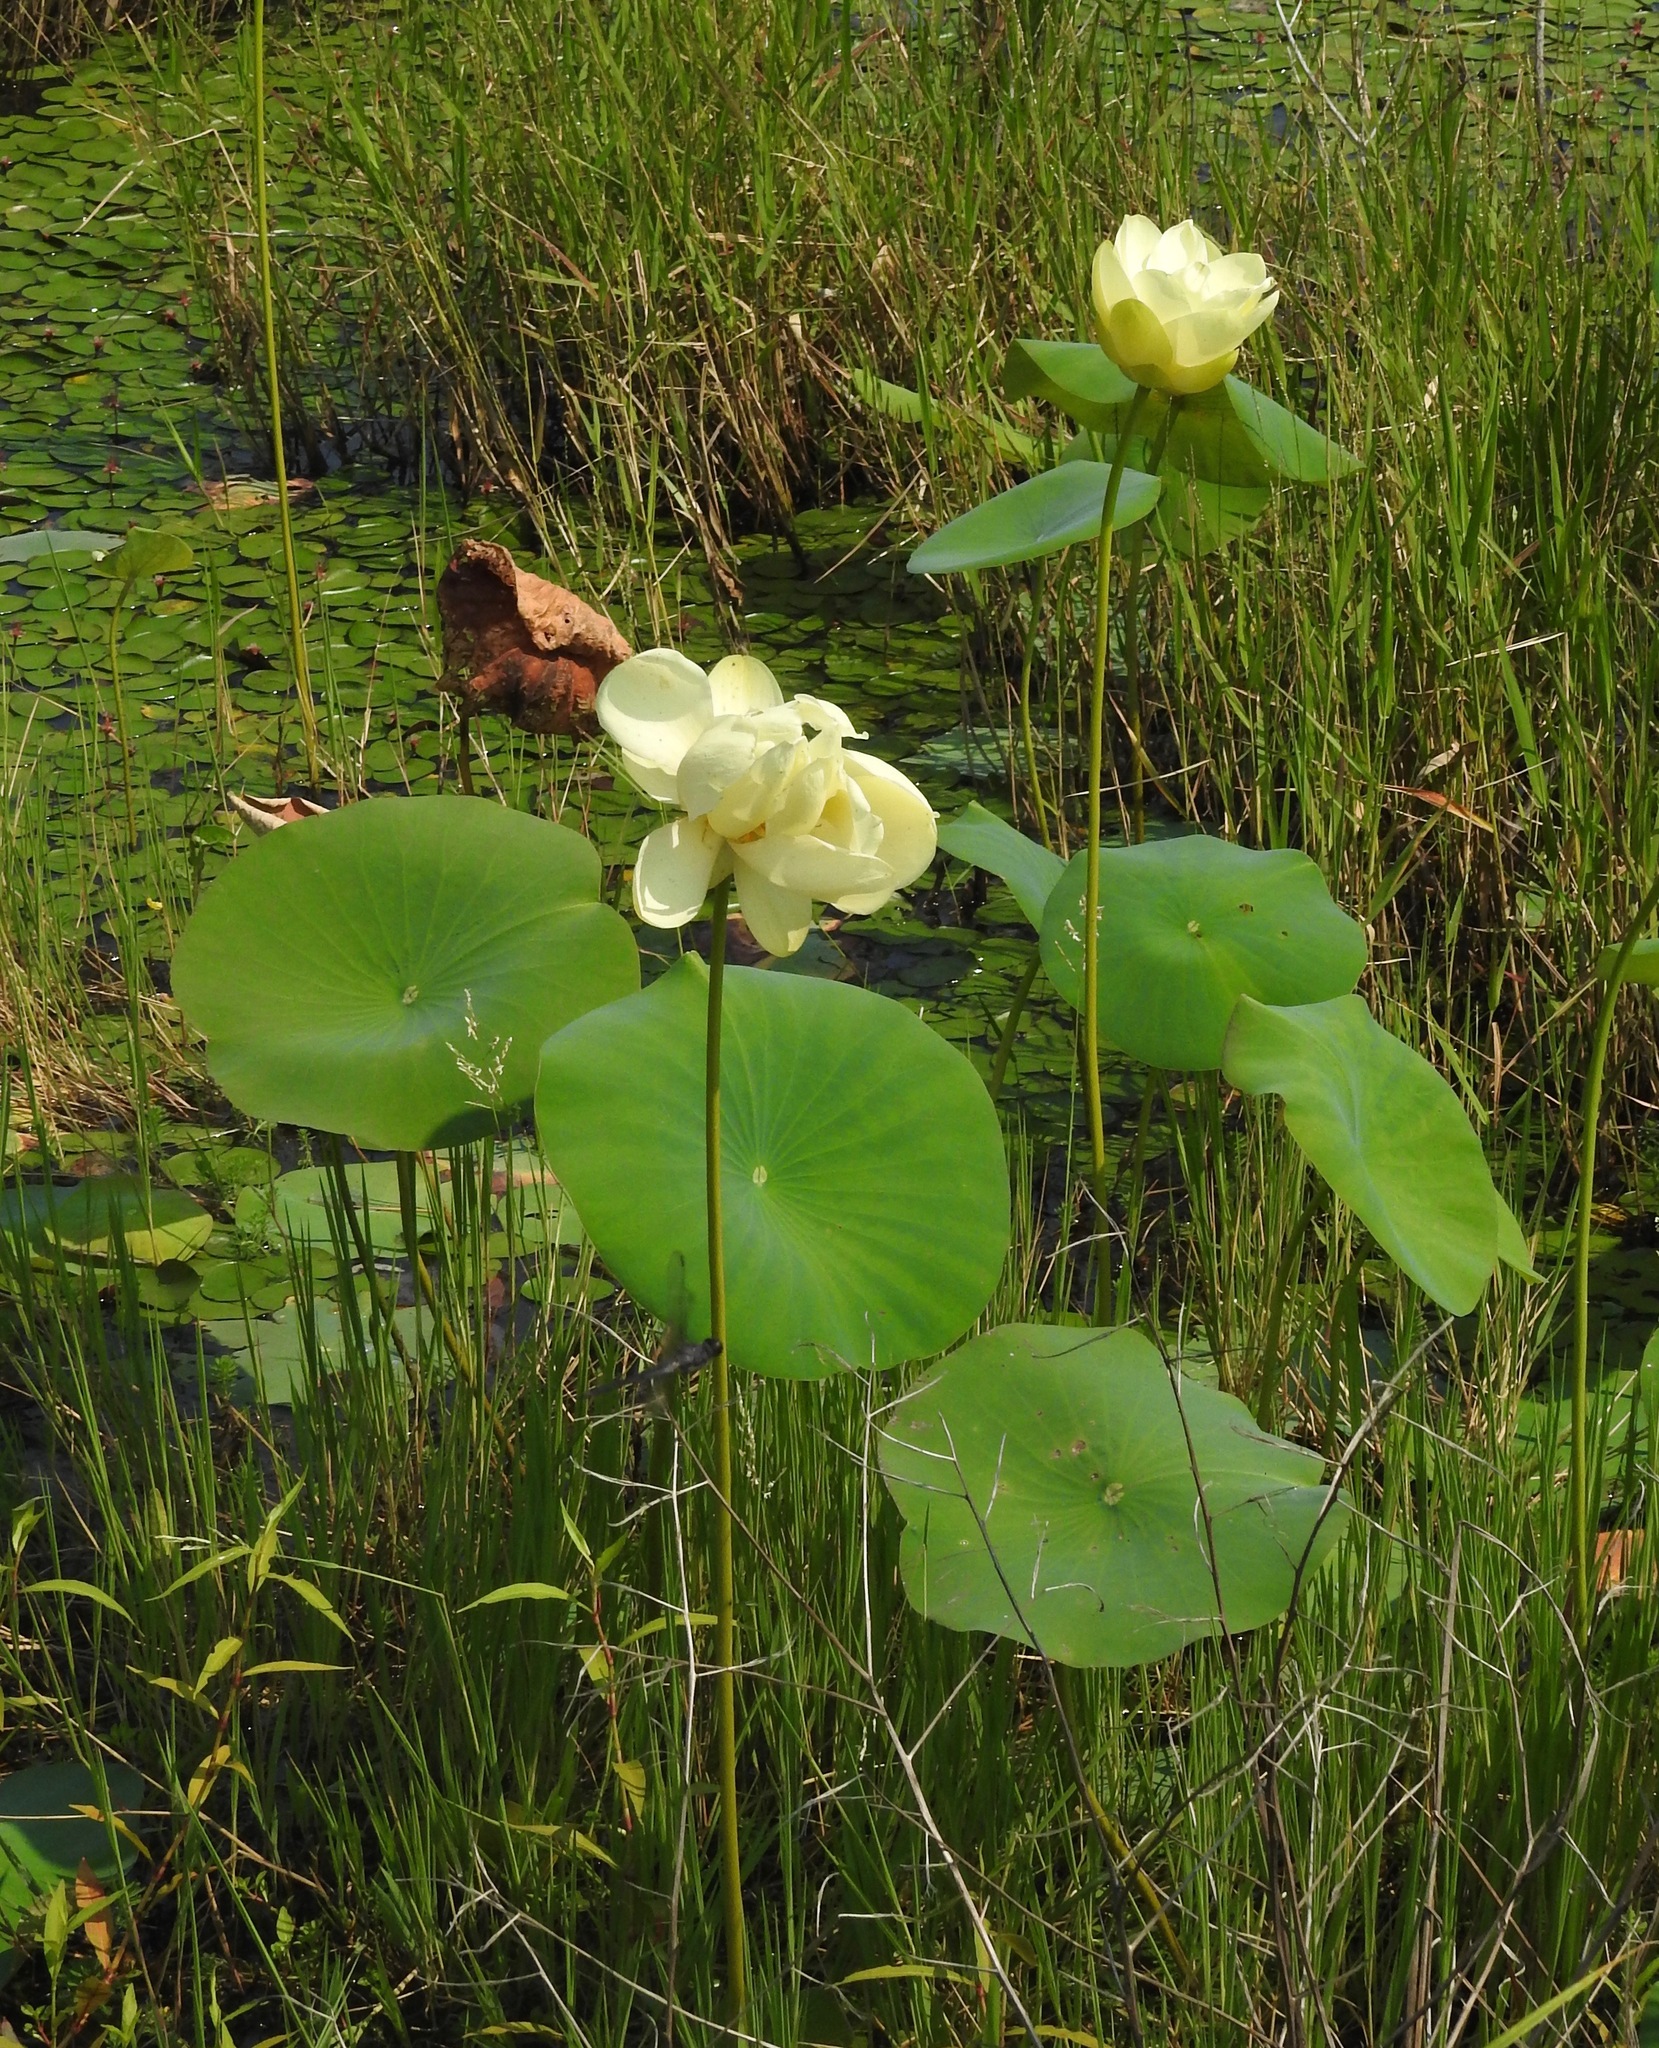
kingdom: Plantae
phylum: Tracheophyta
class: Magnoliopsida
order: Proteales
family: Nelumbonaceae
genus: Nelumbo
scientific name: Nelumbo lutea
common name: American lotus
